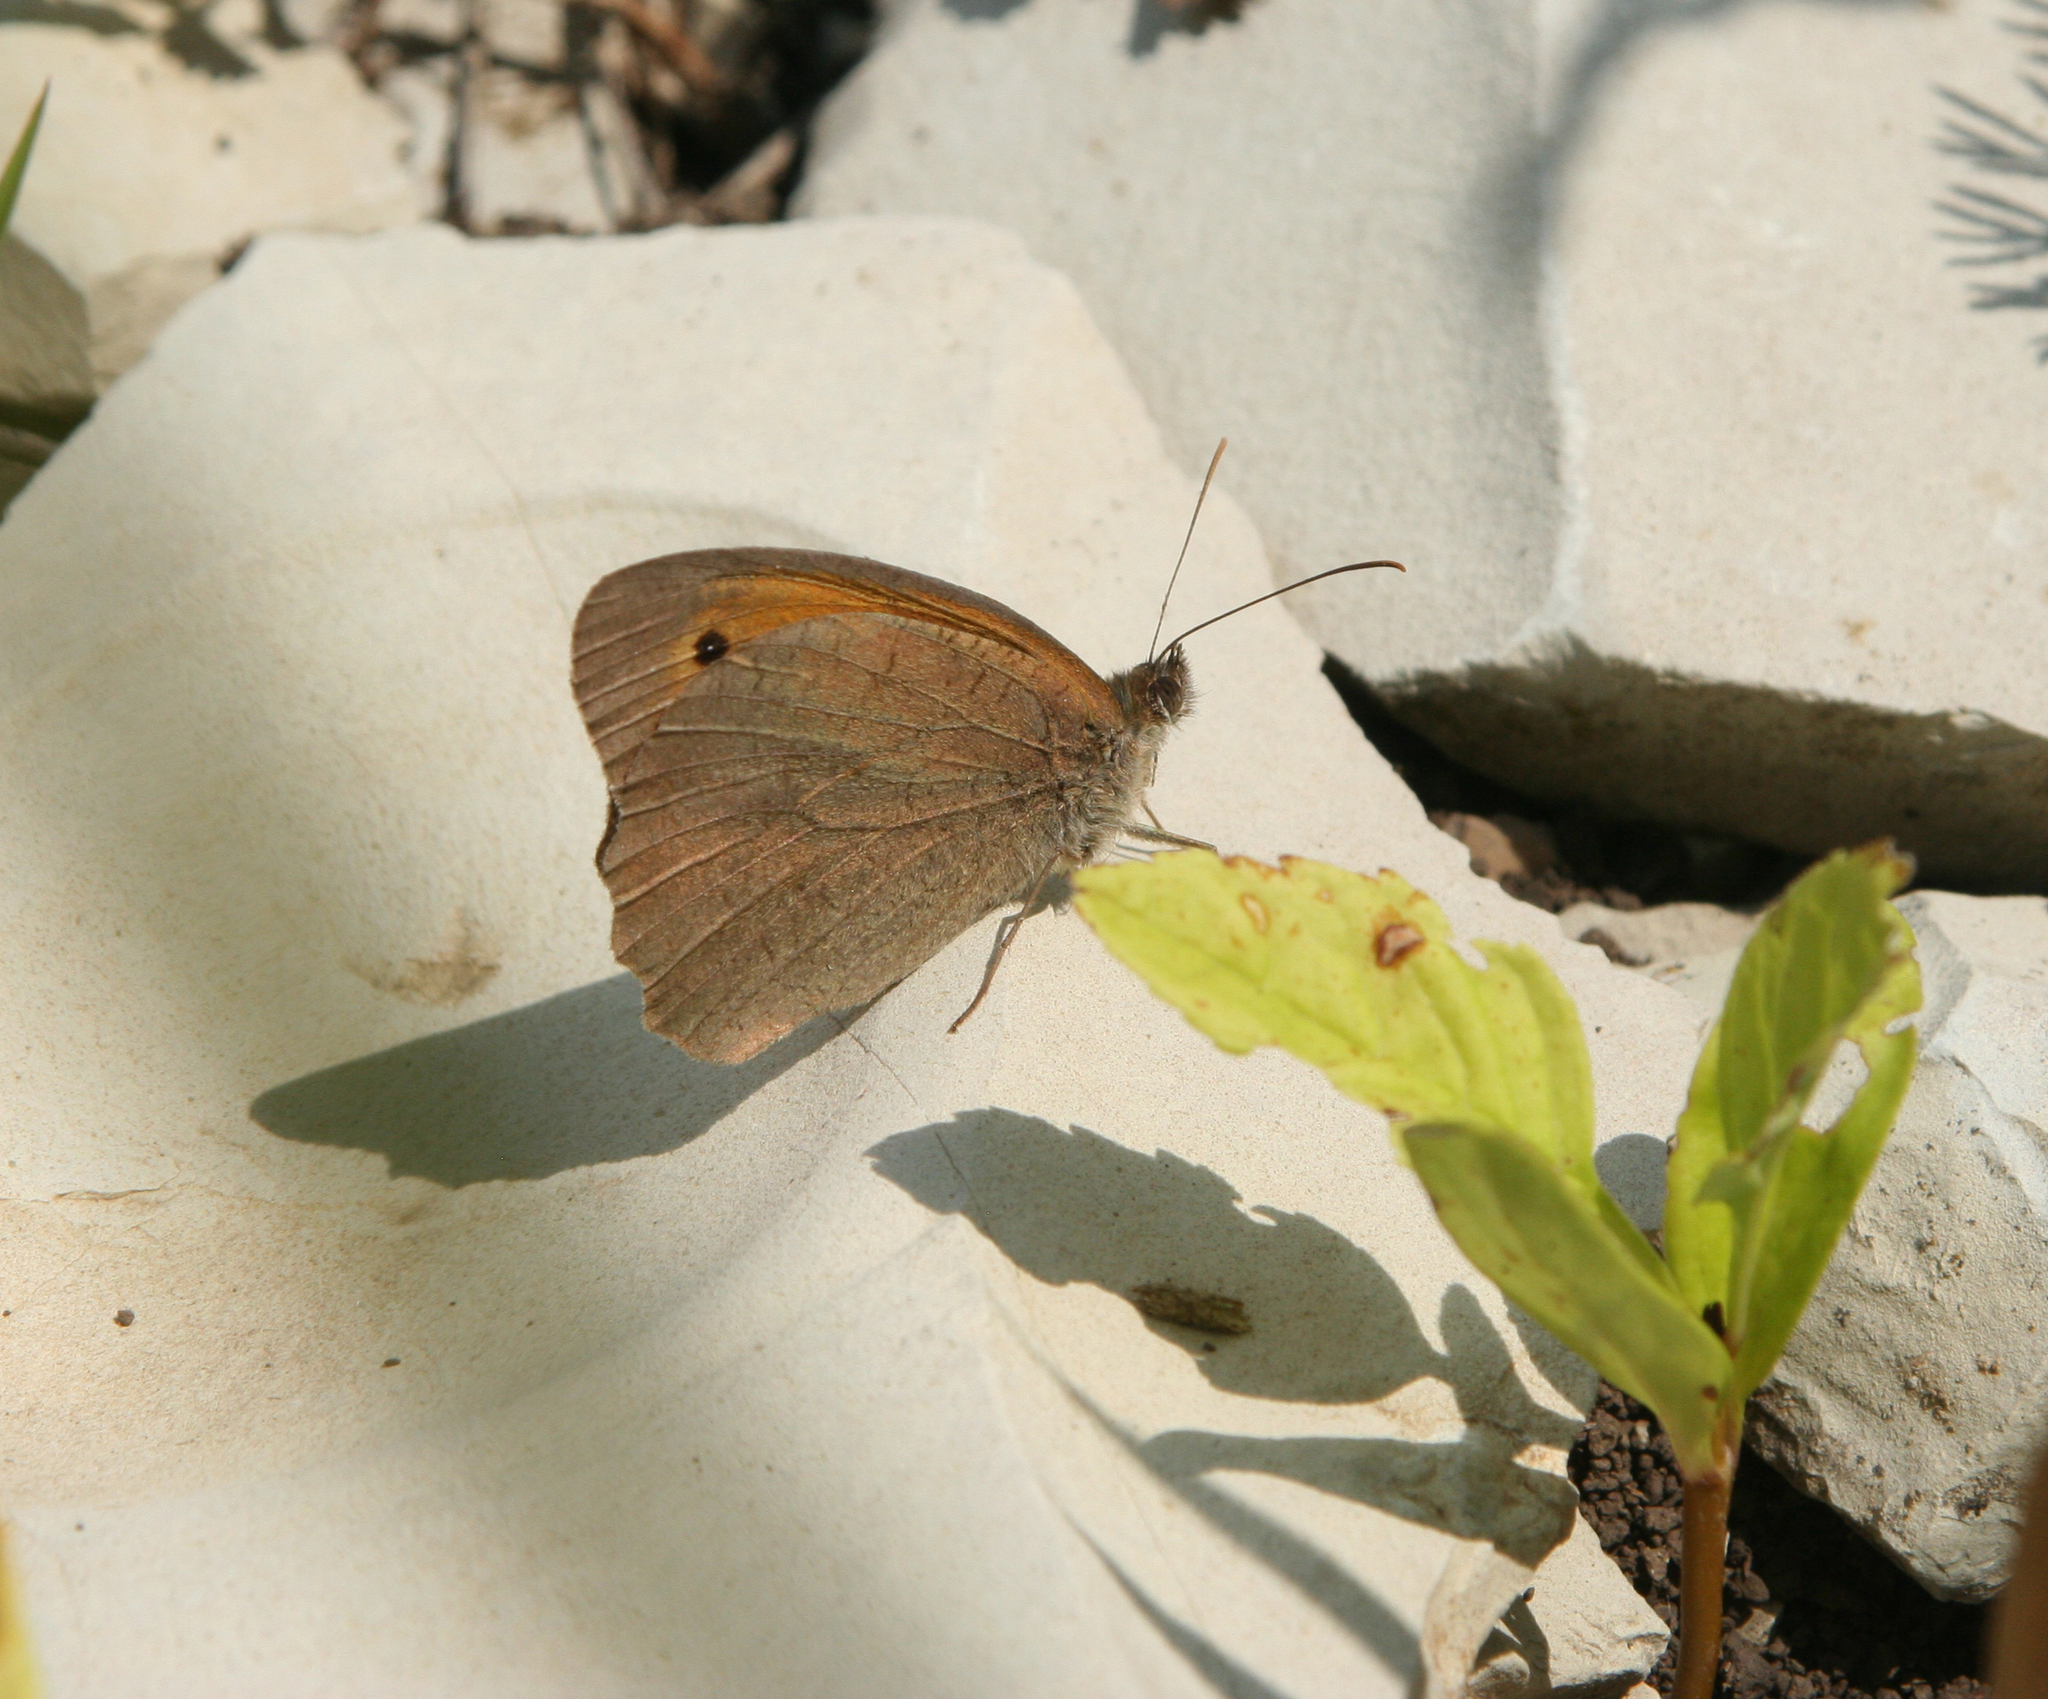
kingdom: Animalia
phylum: Arthropoda
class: Insecta
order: Lepidoptera
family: Nymphalidae
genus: Hyponephele
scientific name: Hyponephele lupinus
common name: Oriental meadow brown
